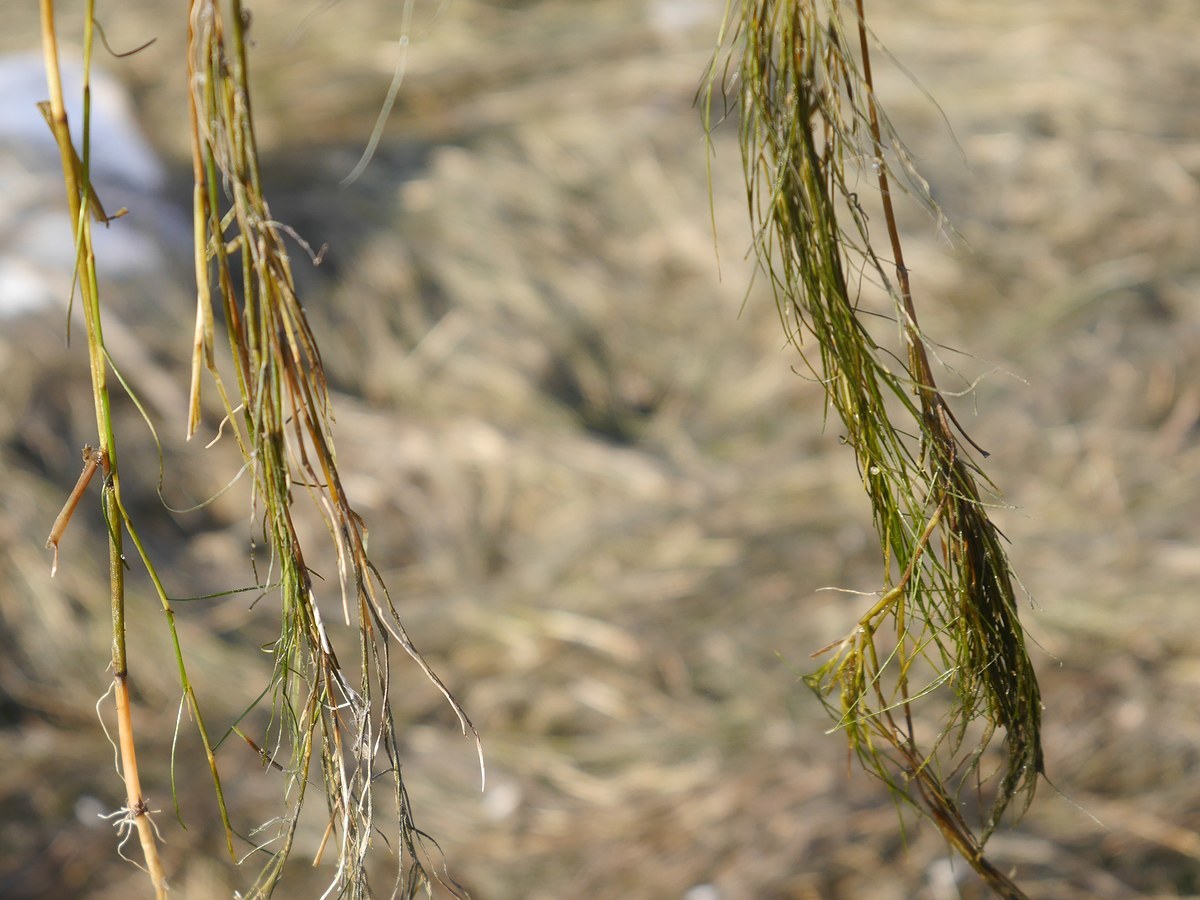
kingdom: Plantae
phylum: Tracheophyta
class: Liliopsida
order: Alismatales
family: Potamogetonaceae
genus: Stuckenia
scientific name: Stuckenia pectinata
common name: Sago pondweed
